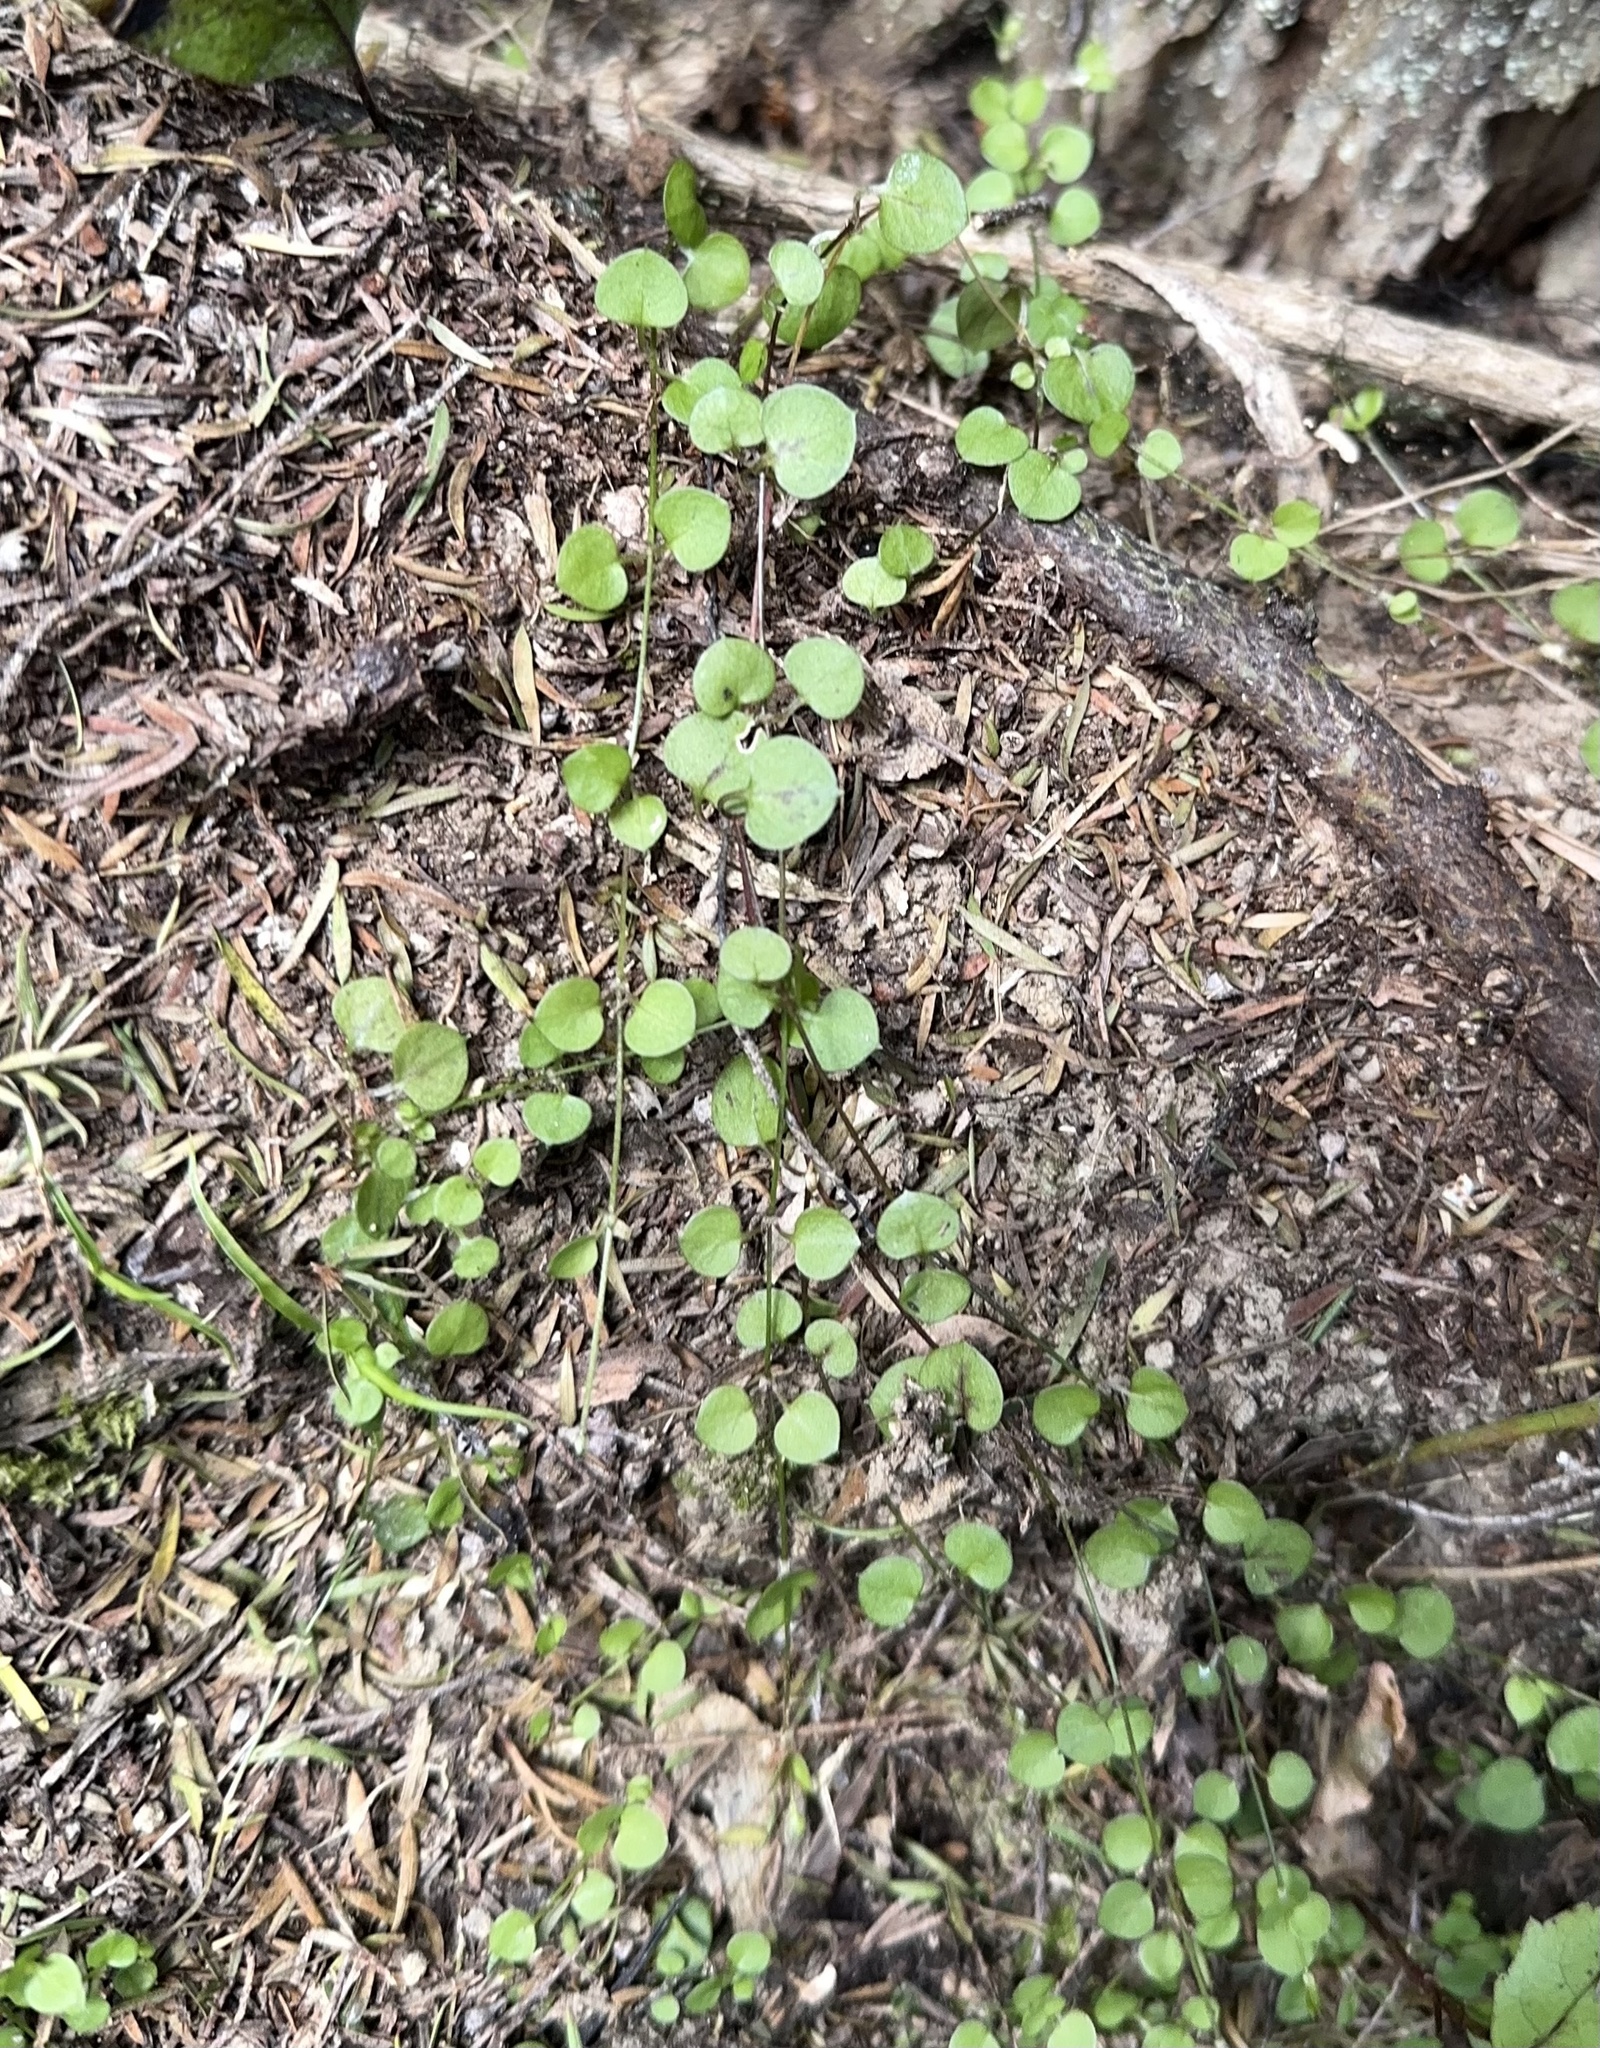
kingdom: Plantae
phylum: Tracheophyta
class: Magnoliopsida
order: Caryophyllales
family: Caryophyllaceae
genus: Stellaria
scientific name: Stellaria parviflora
